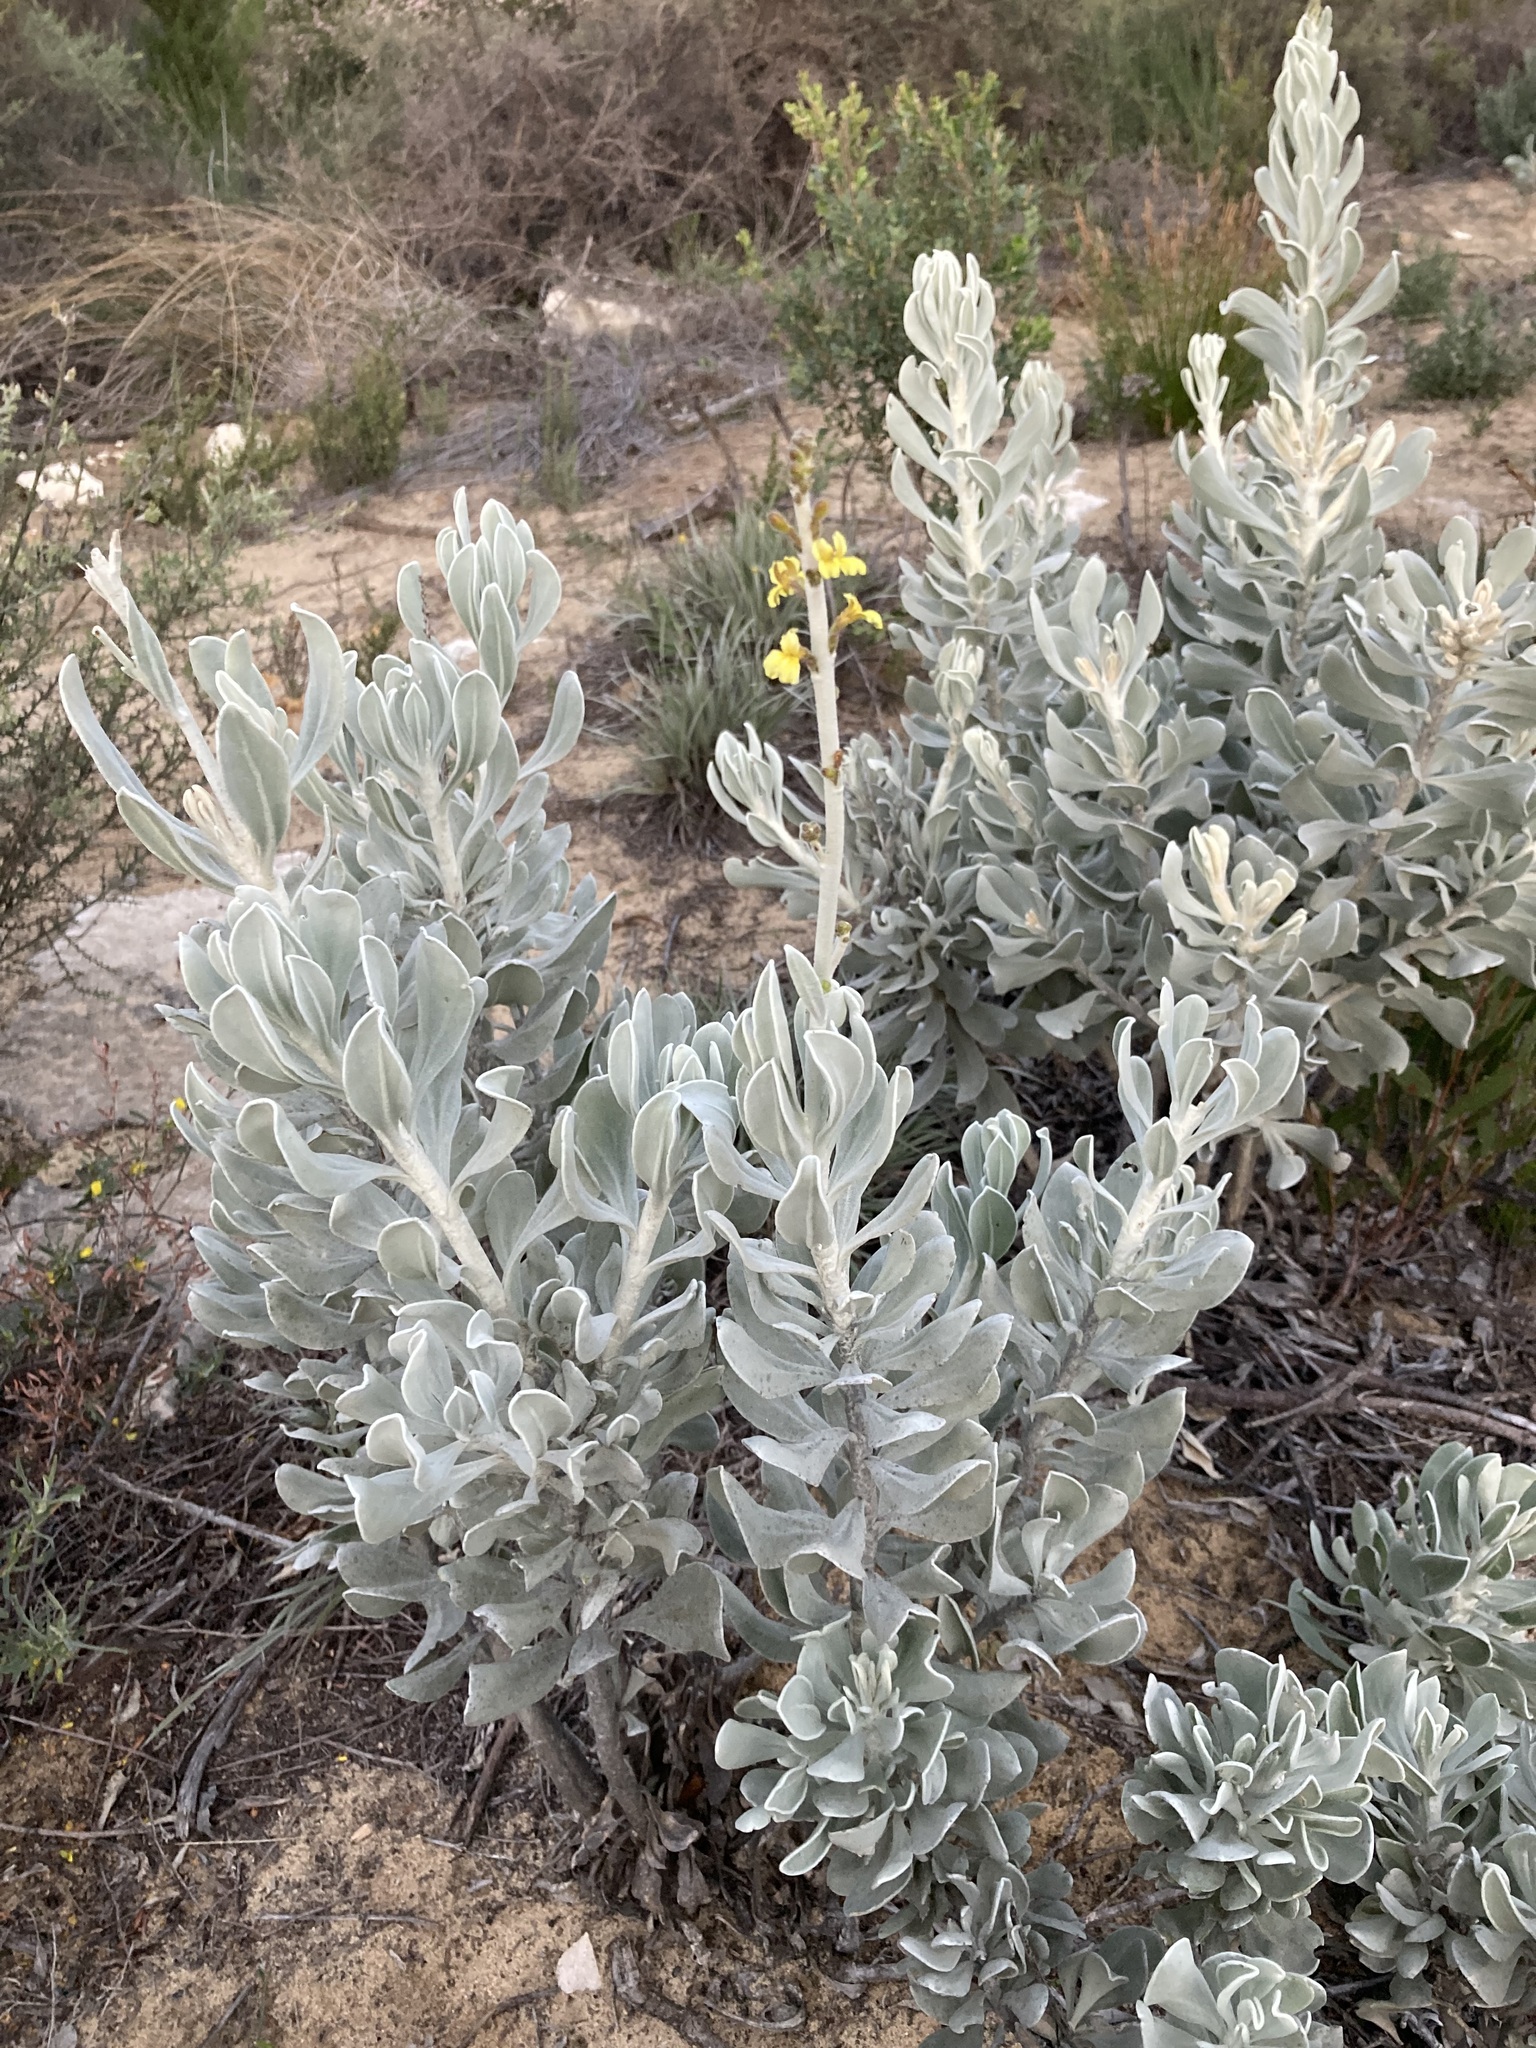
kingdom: Plantae
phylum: Tracheophyta
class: Magnoliopsida
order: Asterales
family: Goodeniaceae
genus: Goodenia
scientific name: Goodenia reinwardtii
